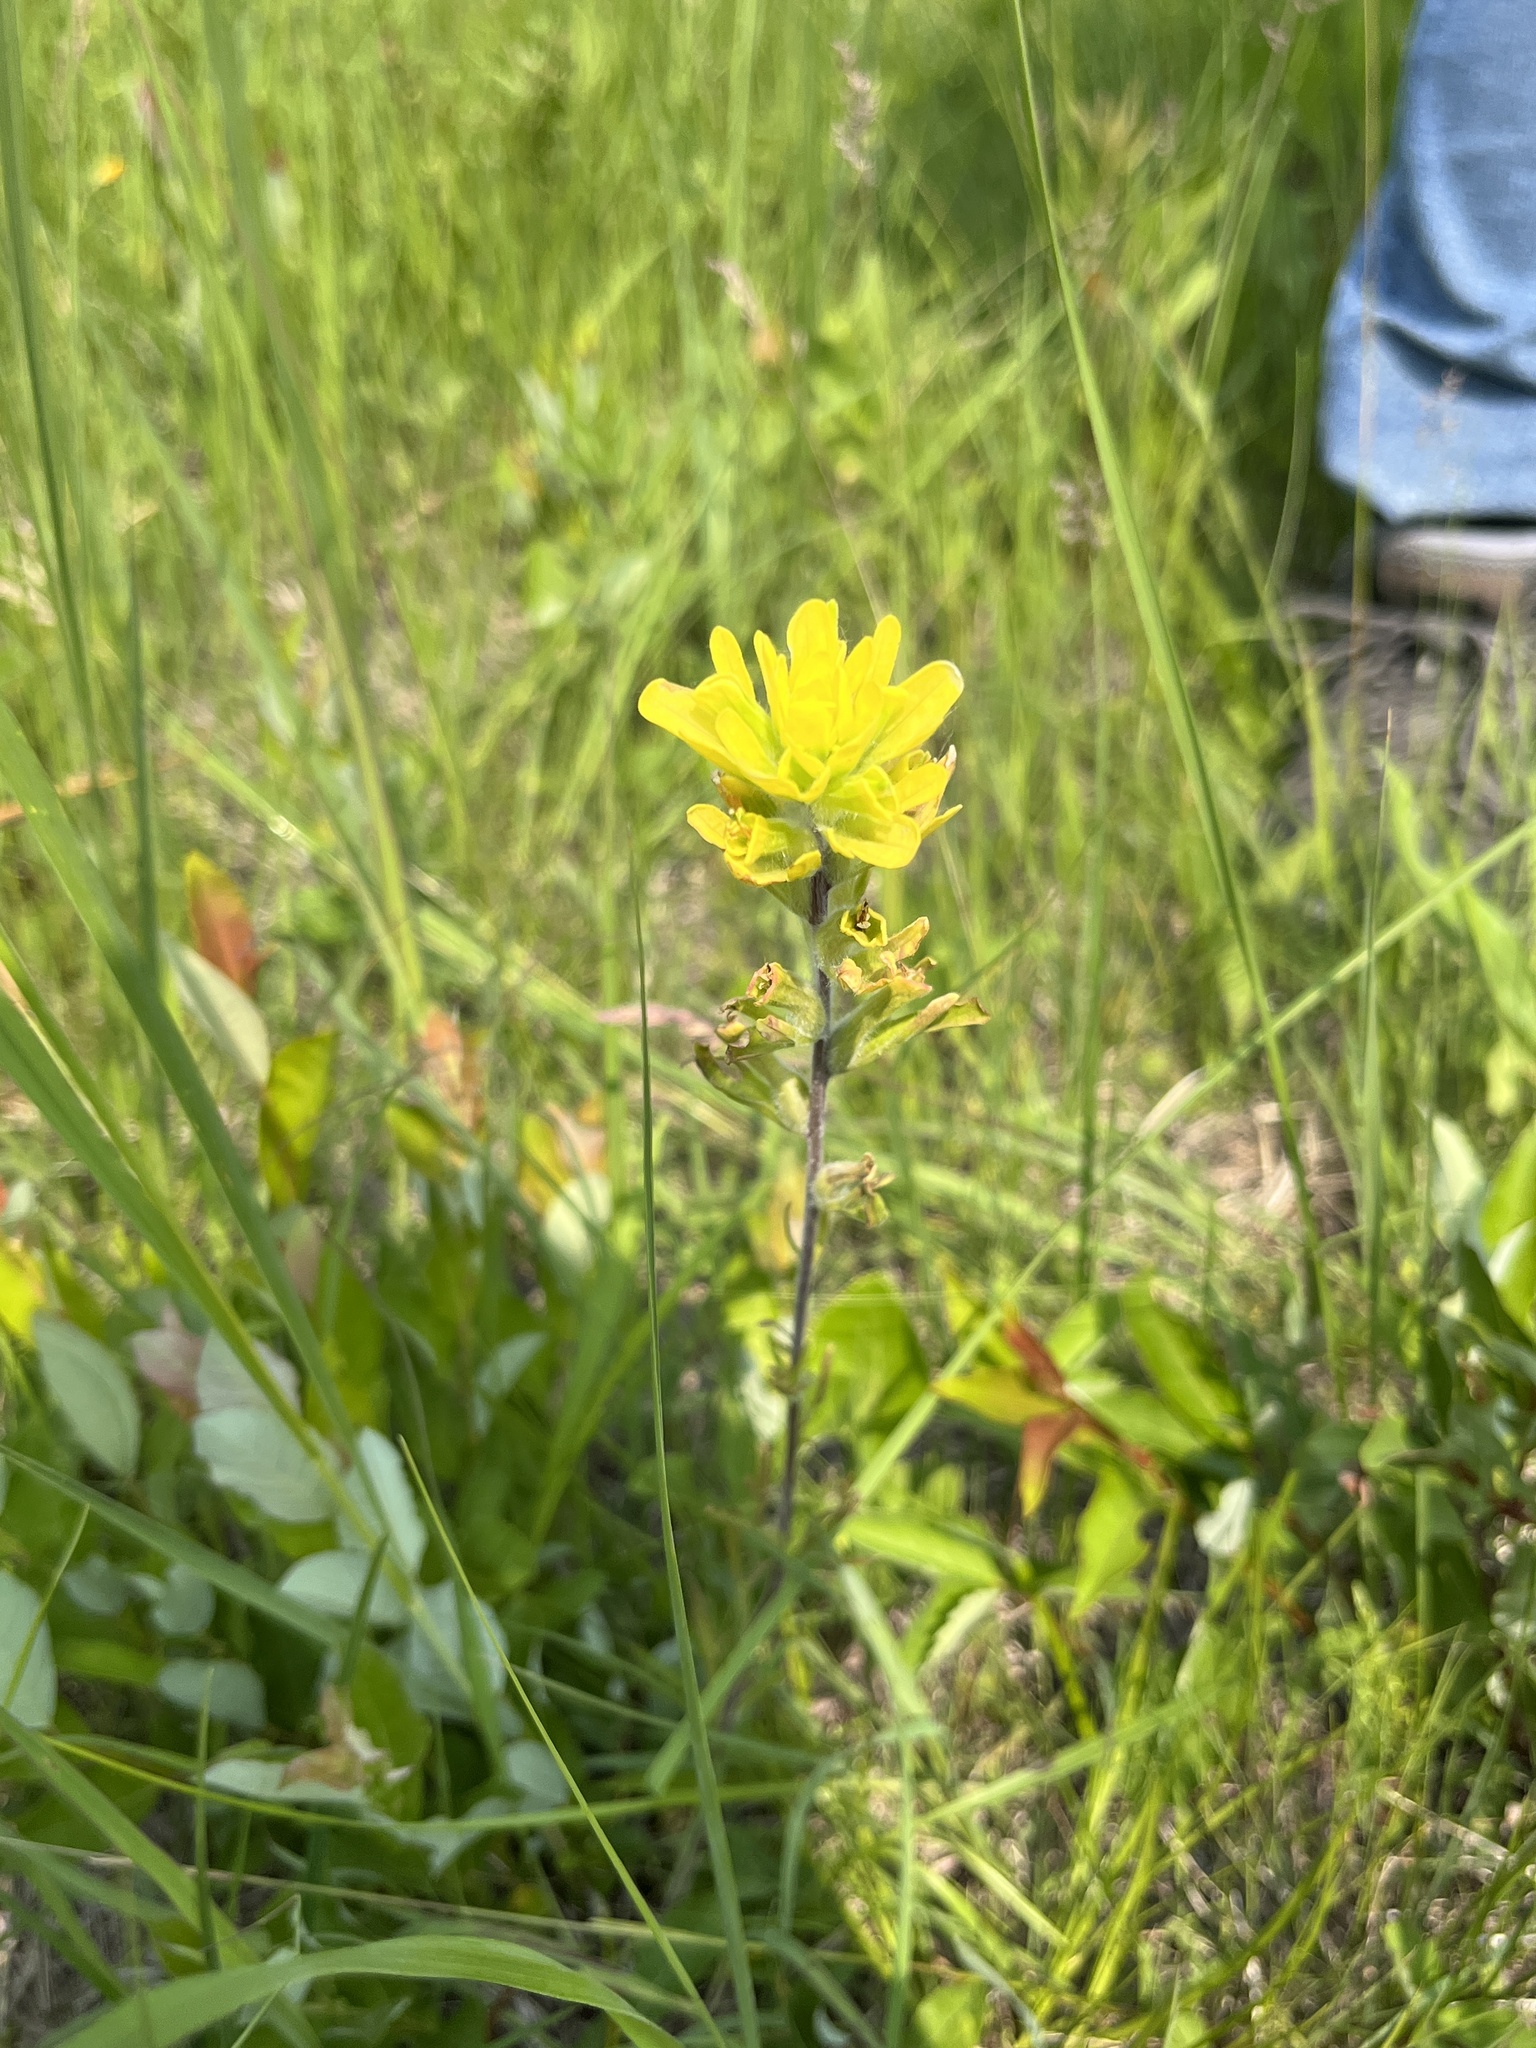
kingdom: Plantae
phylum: Tracheophyta
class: Magnoliopsida
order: Lamiales
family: Orobanchaceae
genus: Castilleja
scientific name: Castilleja coccinea
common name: Scarlet paintbrush
